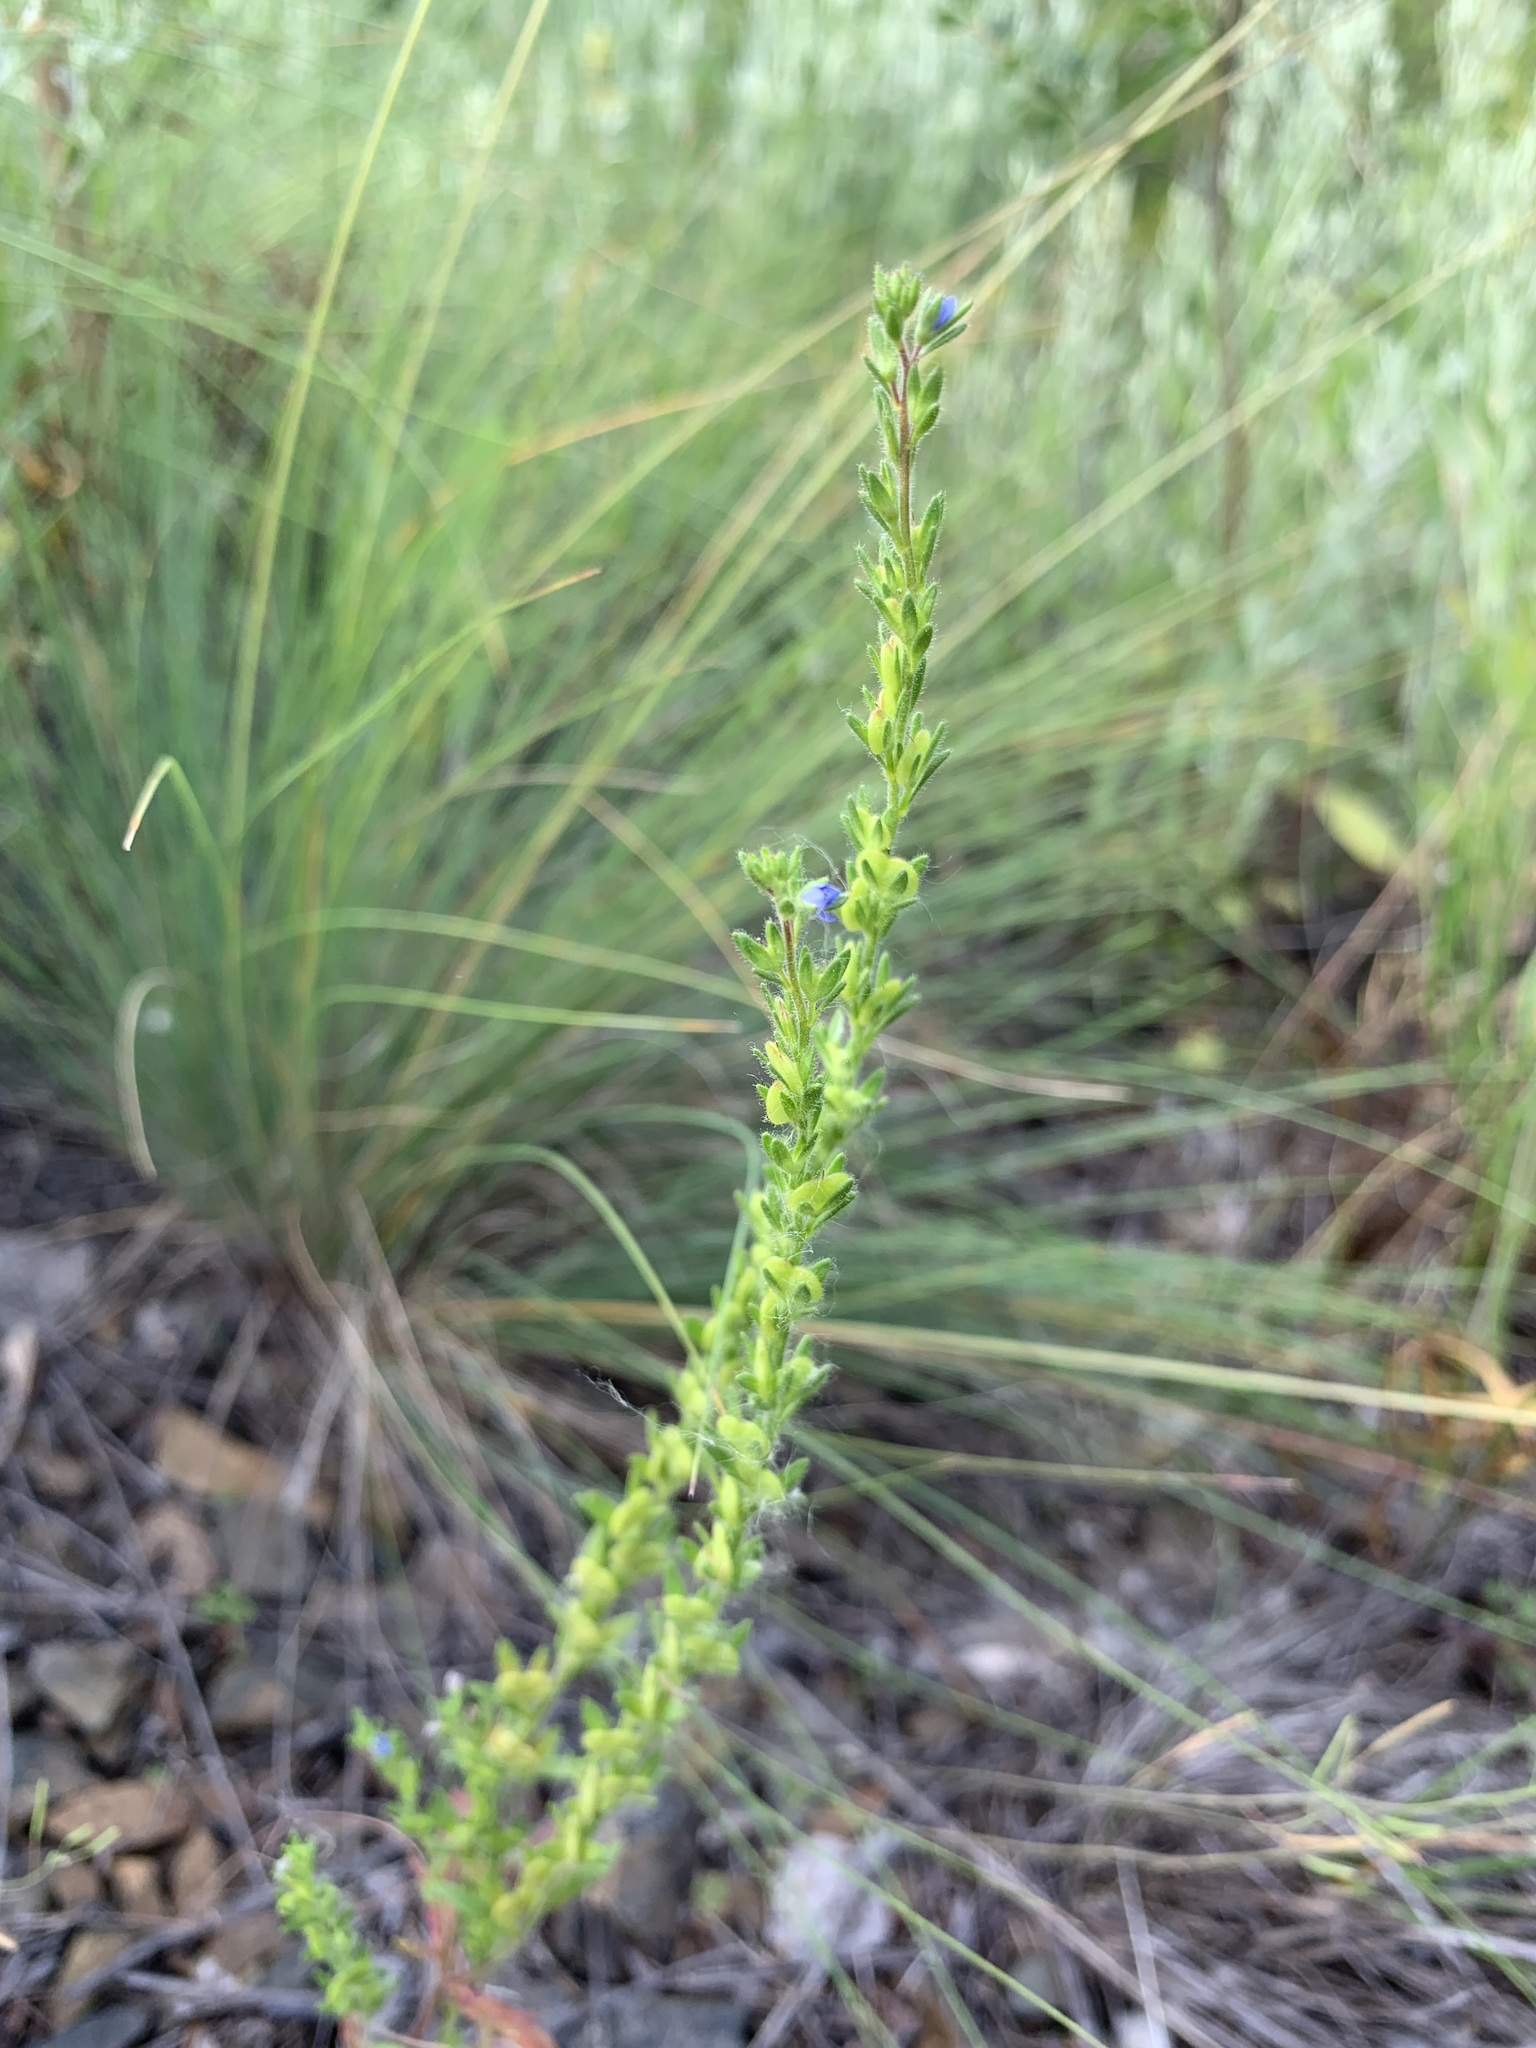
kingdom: Plantae
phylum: Tracheophyta
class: Magnoliopsida
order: Lamiales
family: Plantaginaceae
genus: Veronica
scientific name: Veronica dillenii
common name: Dillenius' speedwell
